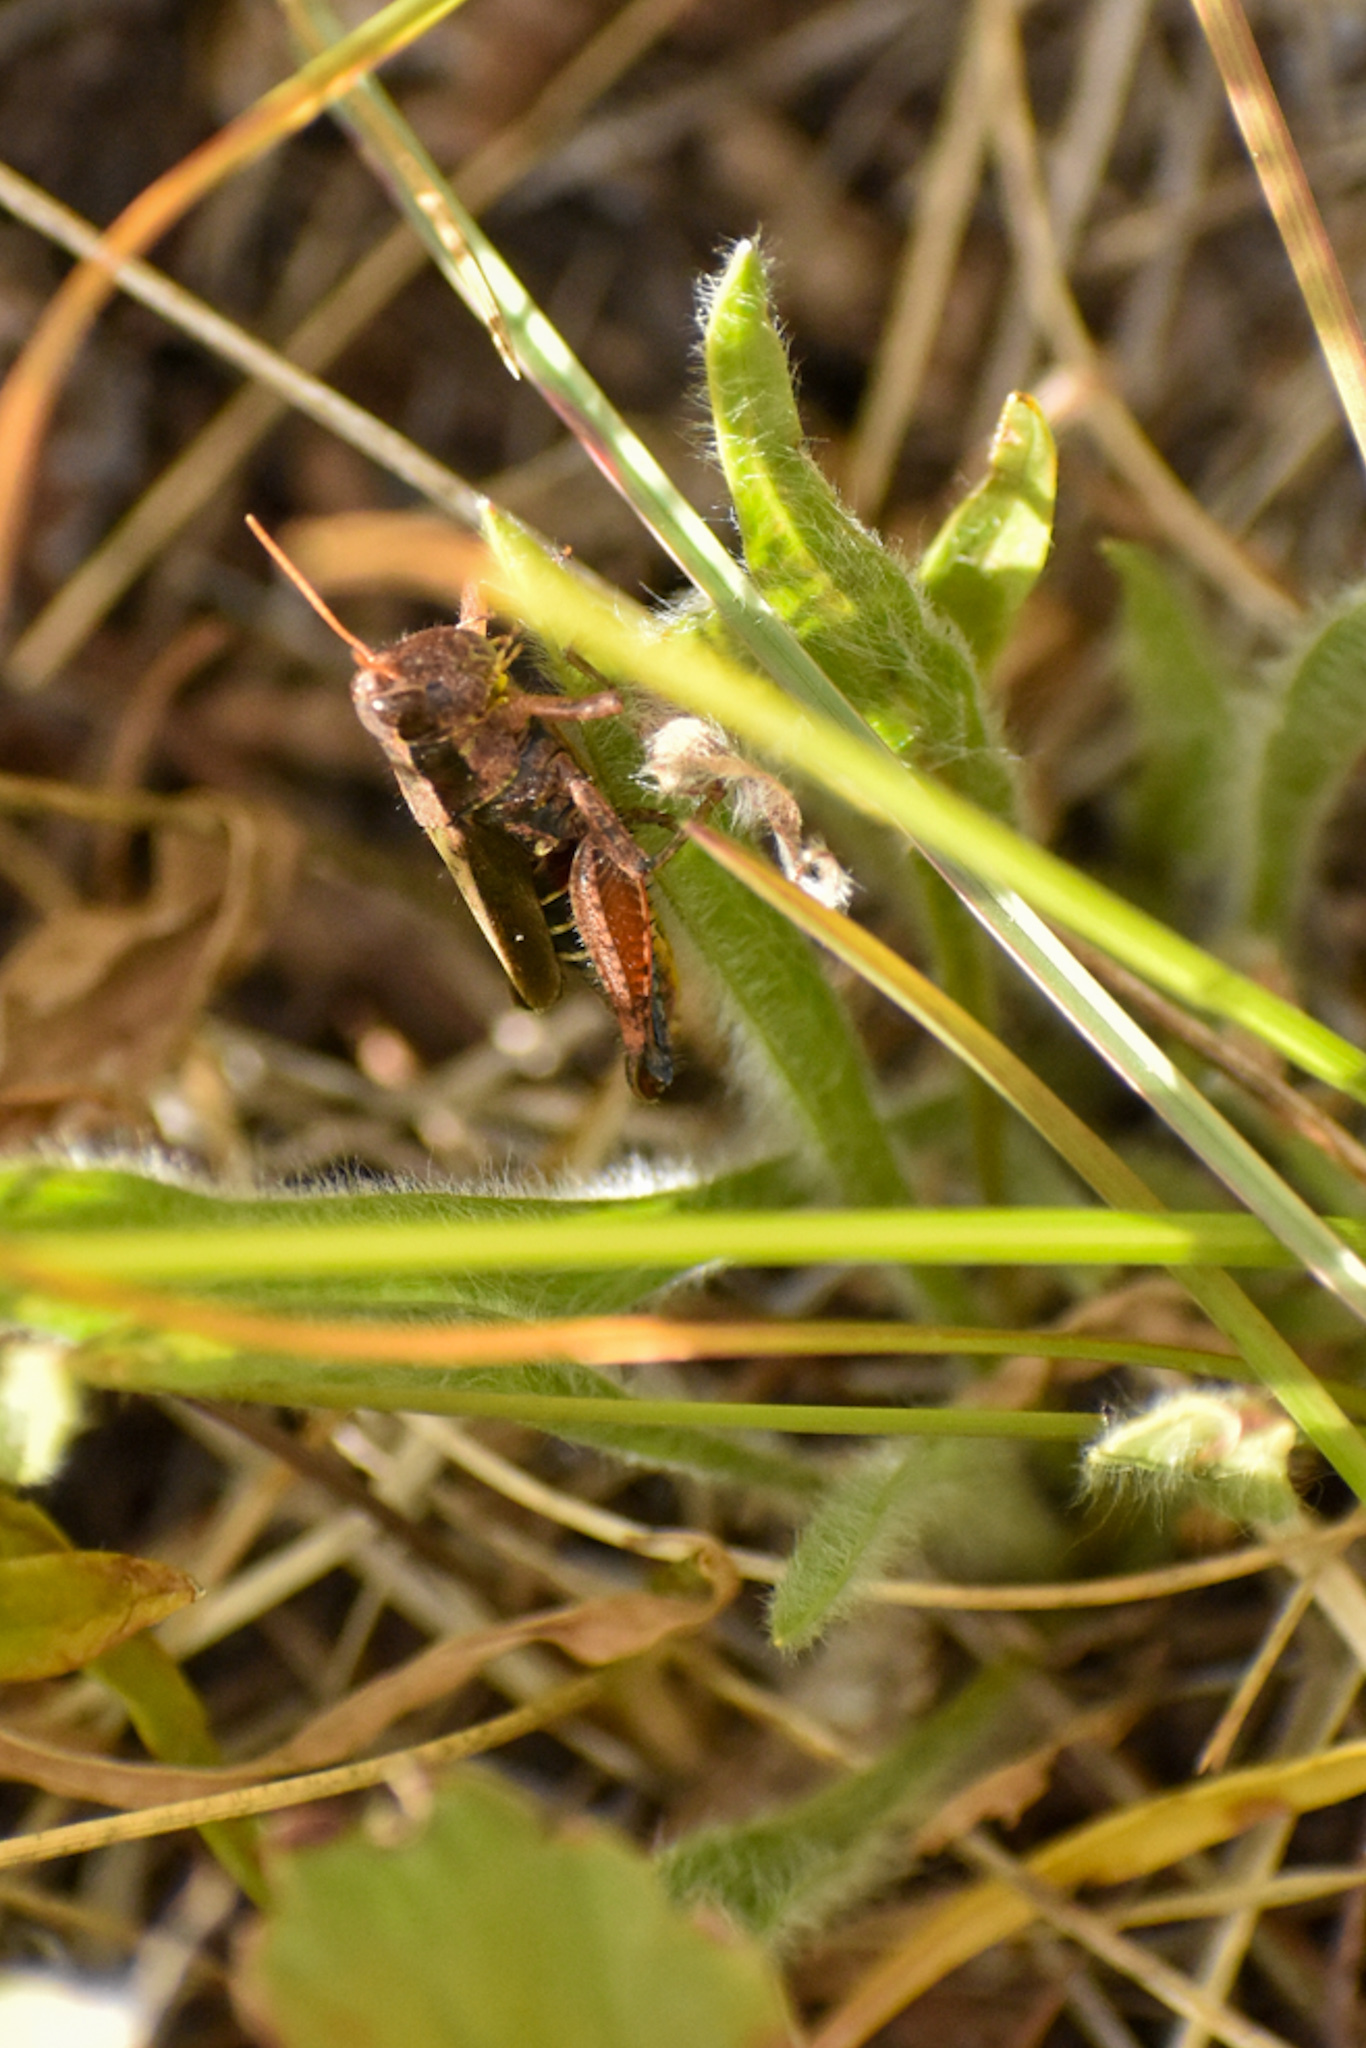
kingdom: Animalia
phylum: Arthropoda
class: Insecta
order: Orthoptera
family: Acrididae
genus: Dichroplus
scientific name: Dichroplus democraticus
